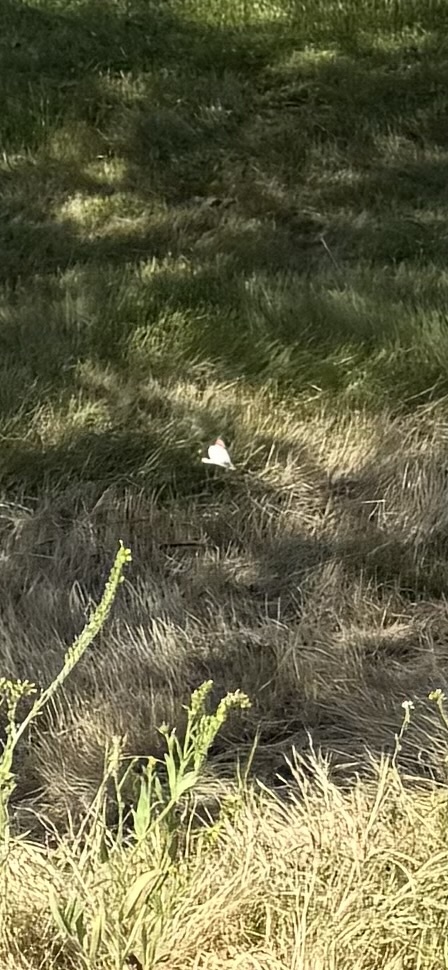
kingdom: Animalia
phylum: Arthropoda
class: Insecta
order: Lepidoptera
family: Pieridae
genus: Anthocharis
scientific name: Anthocharis sara
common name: Sara's orangetip
